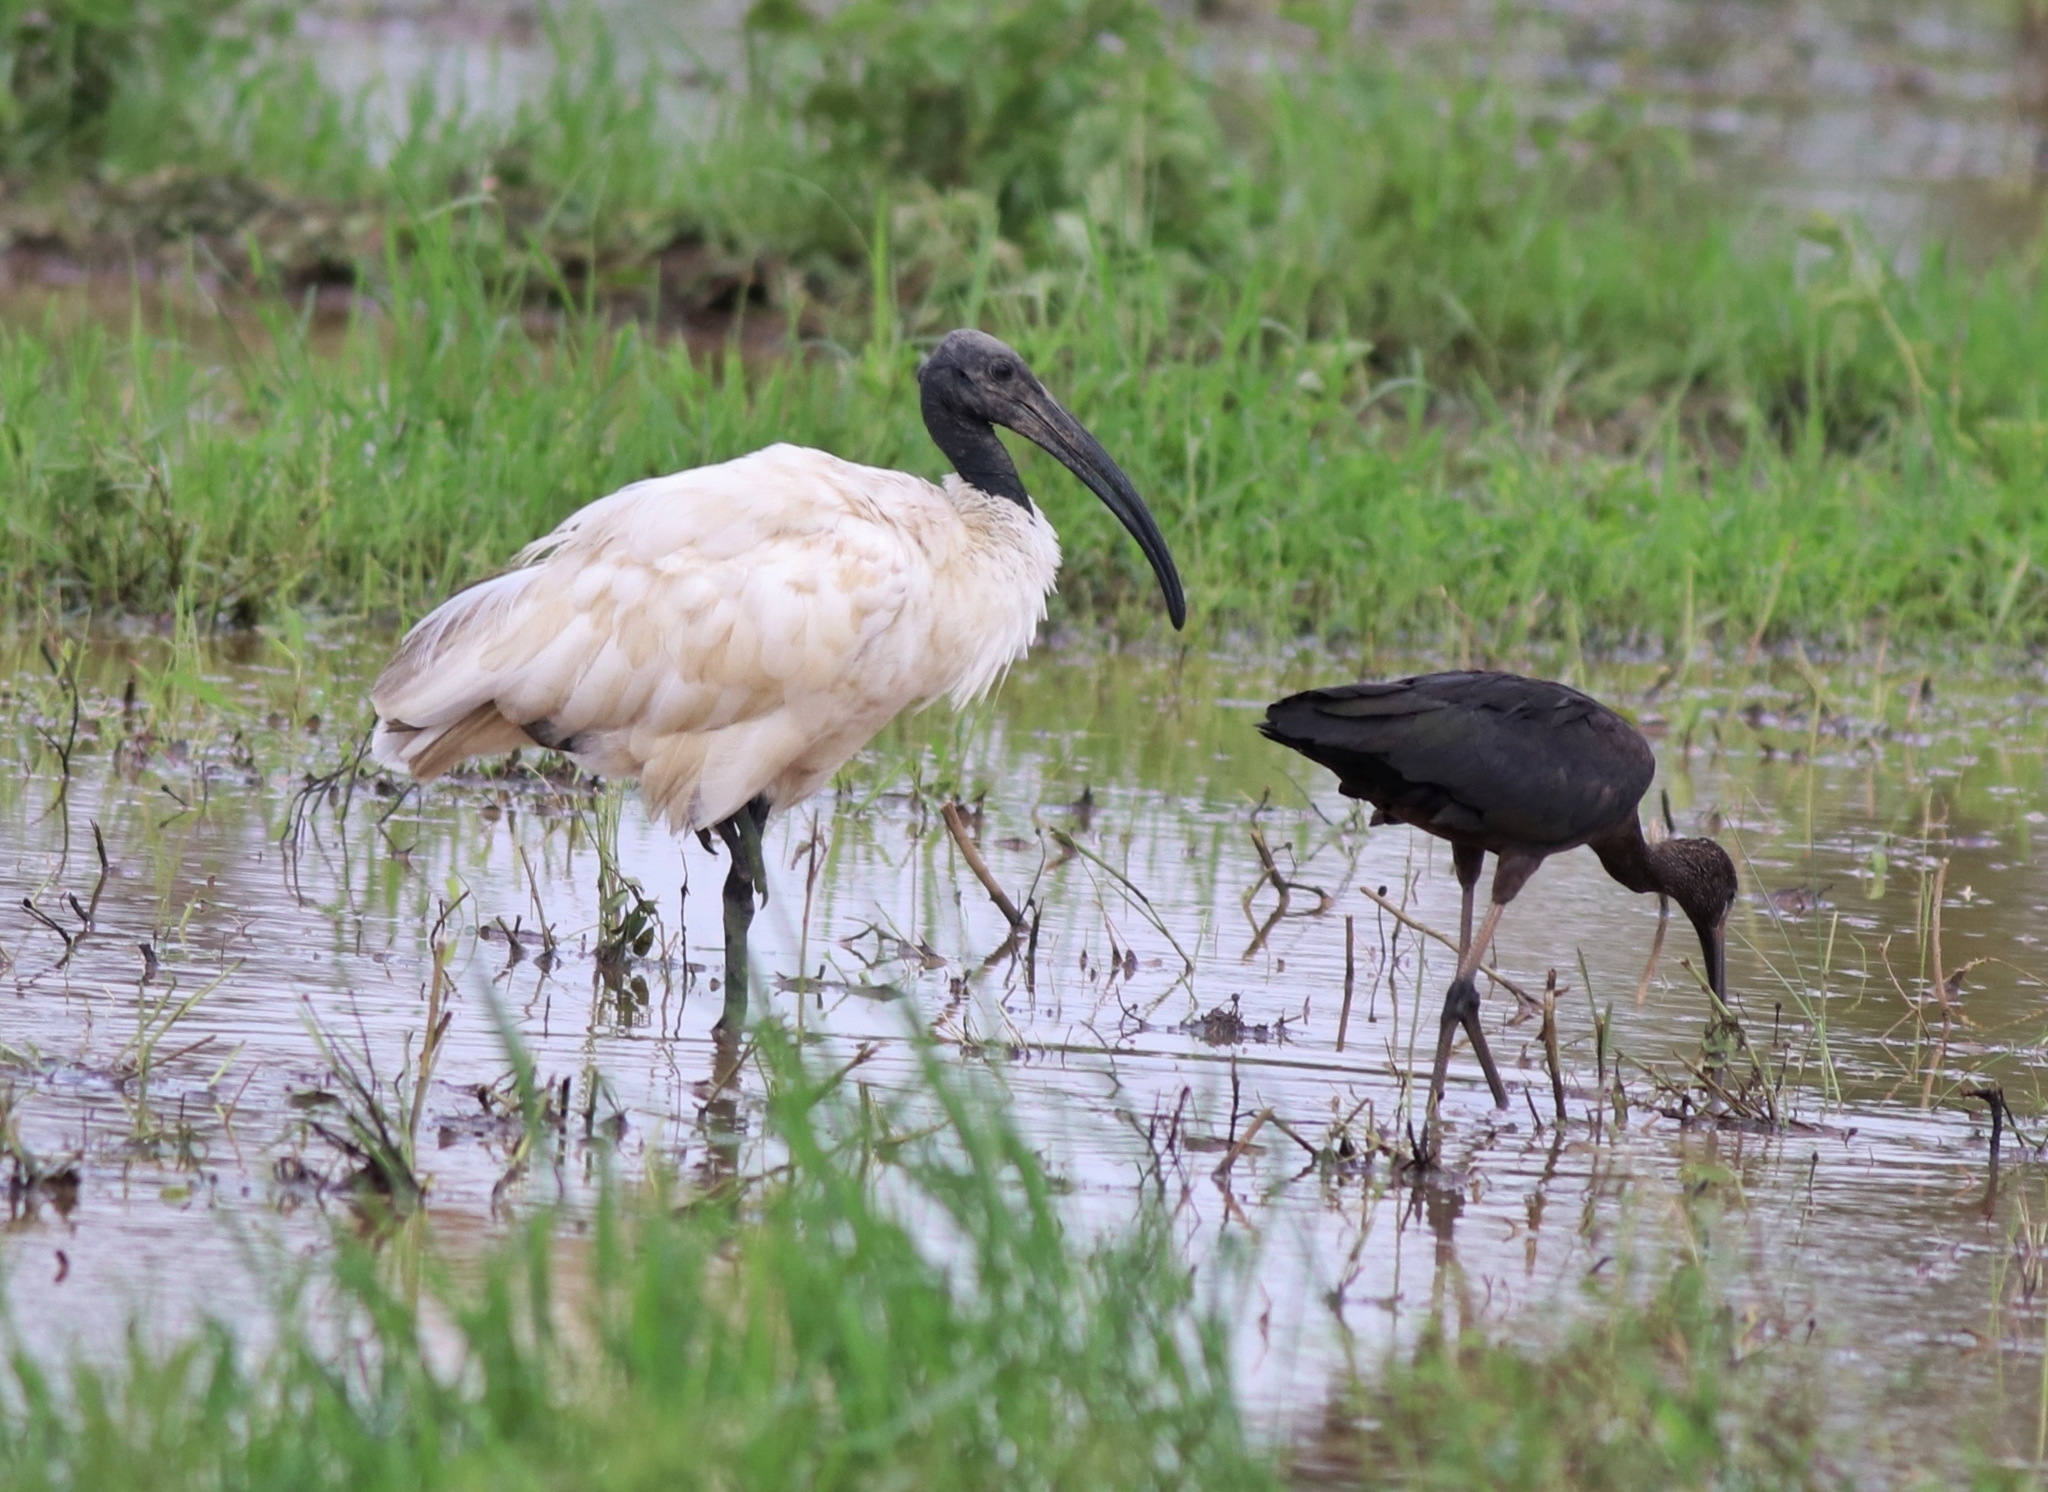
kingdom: Animalia
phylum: Chordata
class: Aves
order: Pelecaniformes
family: Threskiornithidae
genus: Threskiornis
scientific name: Threskiornis melanocephalus
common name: Black-headed ibis
